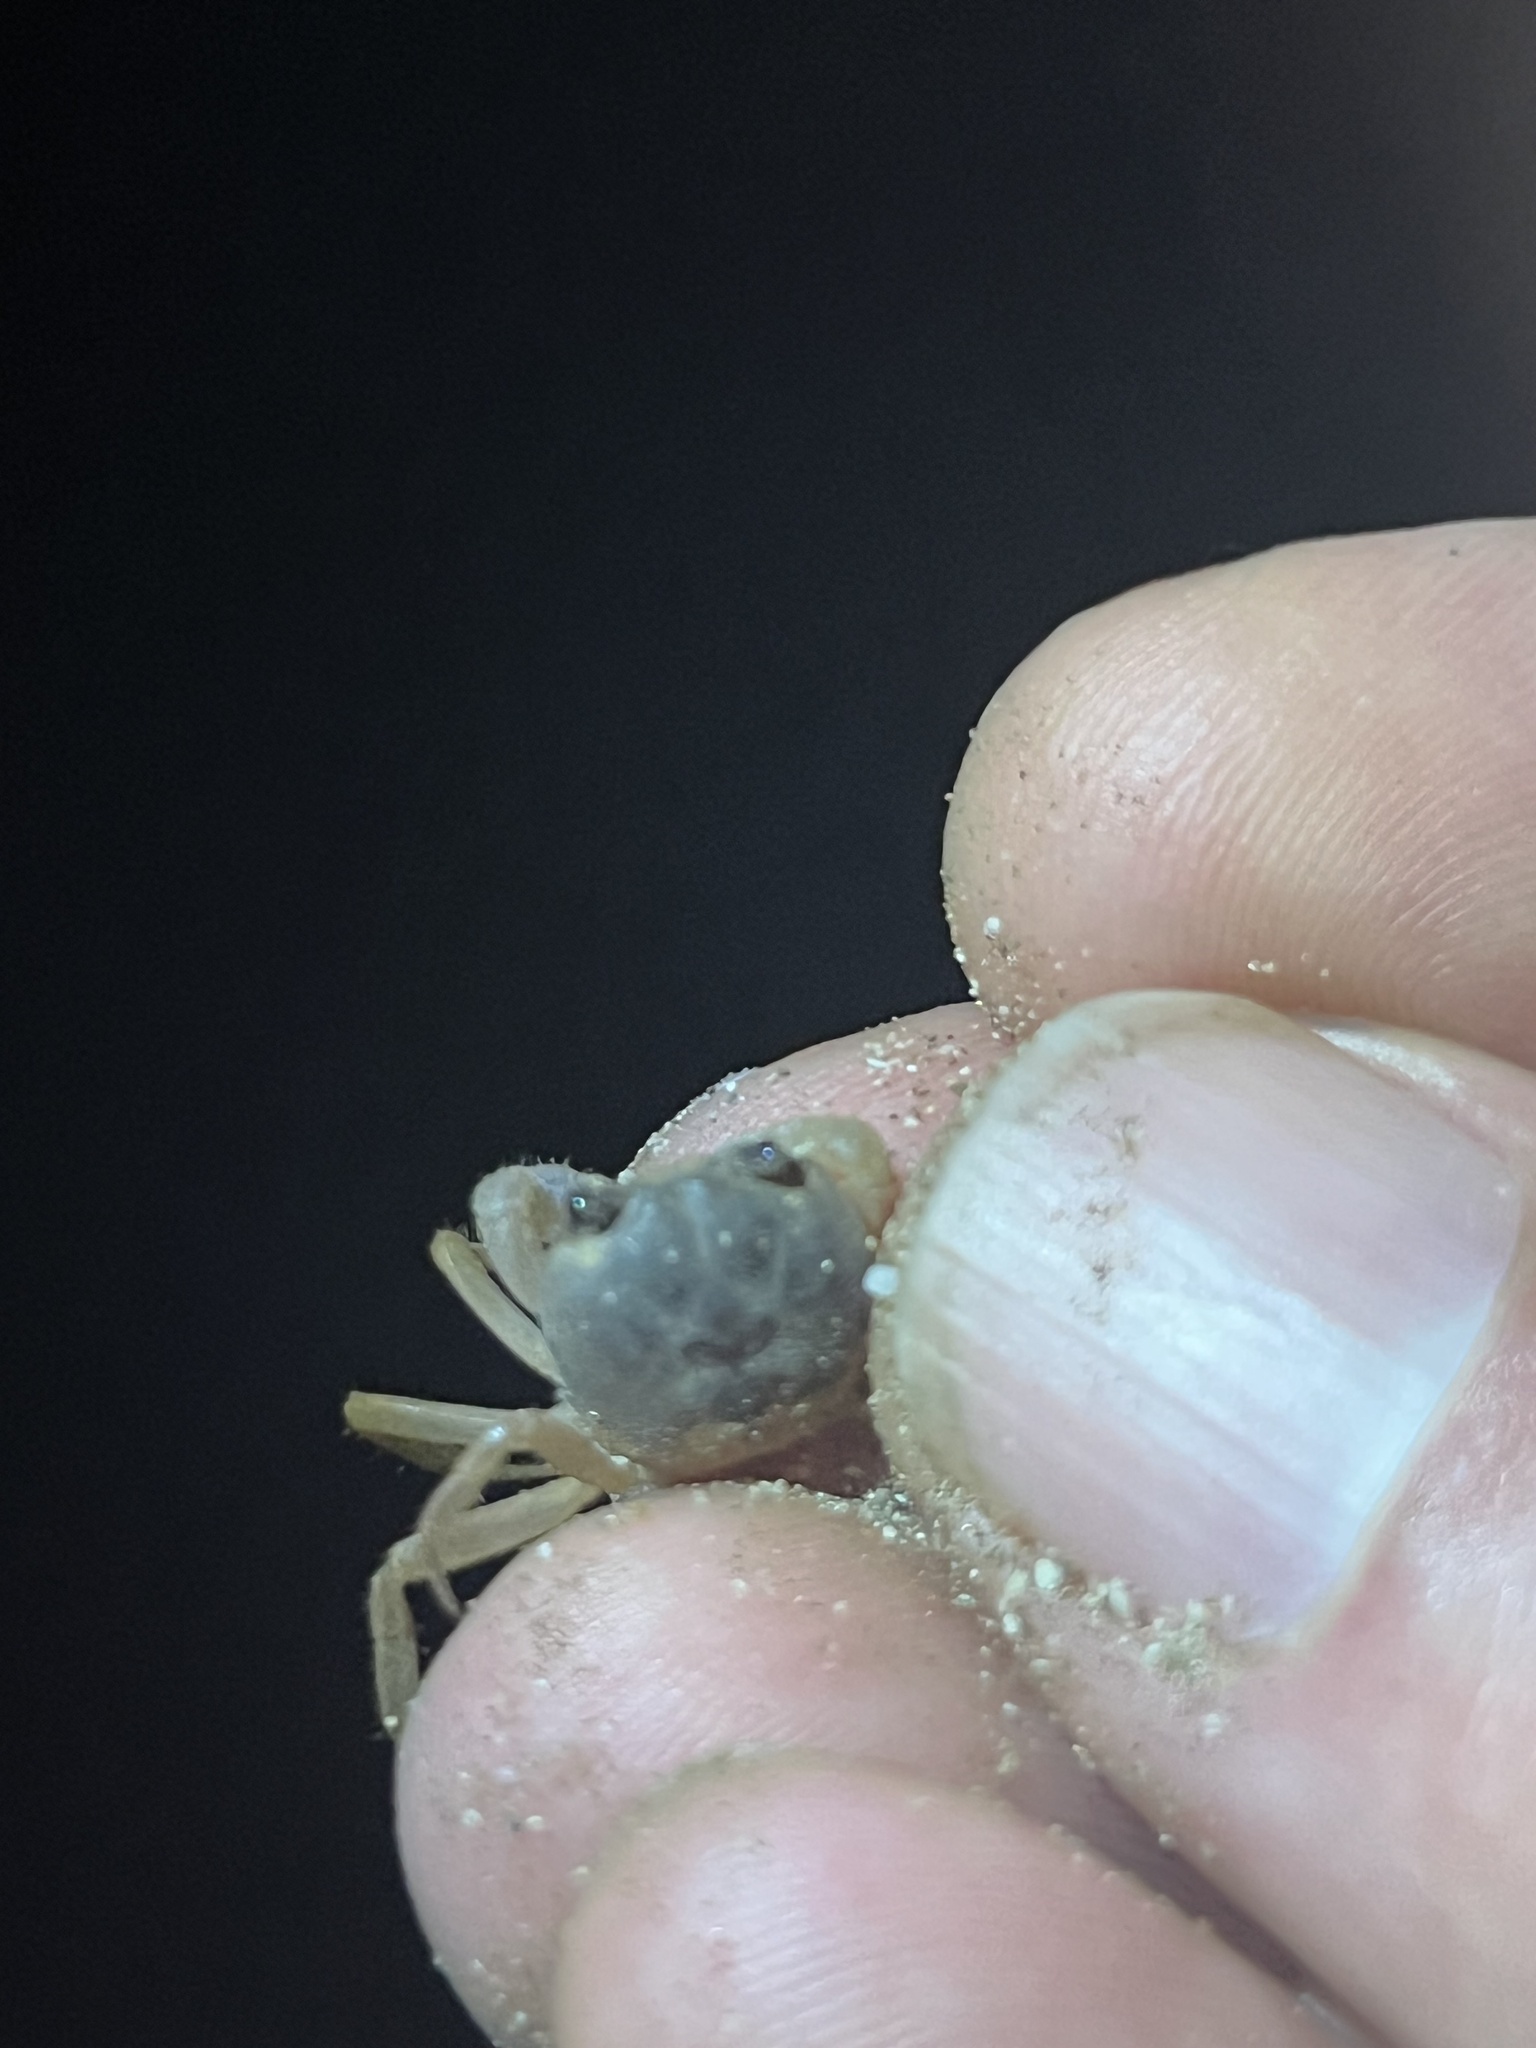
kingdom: Animalia
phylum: Arthropoda
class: Malacostraca
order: Decapoda
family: Gecarcinidae
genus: Gecarcinus
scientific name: Gecarcinus quadratus
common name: Halloween crab
